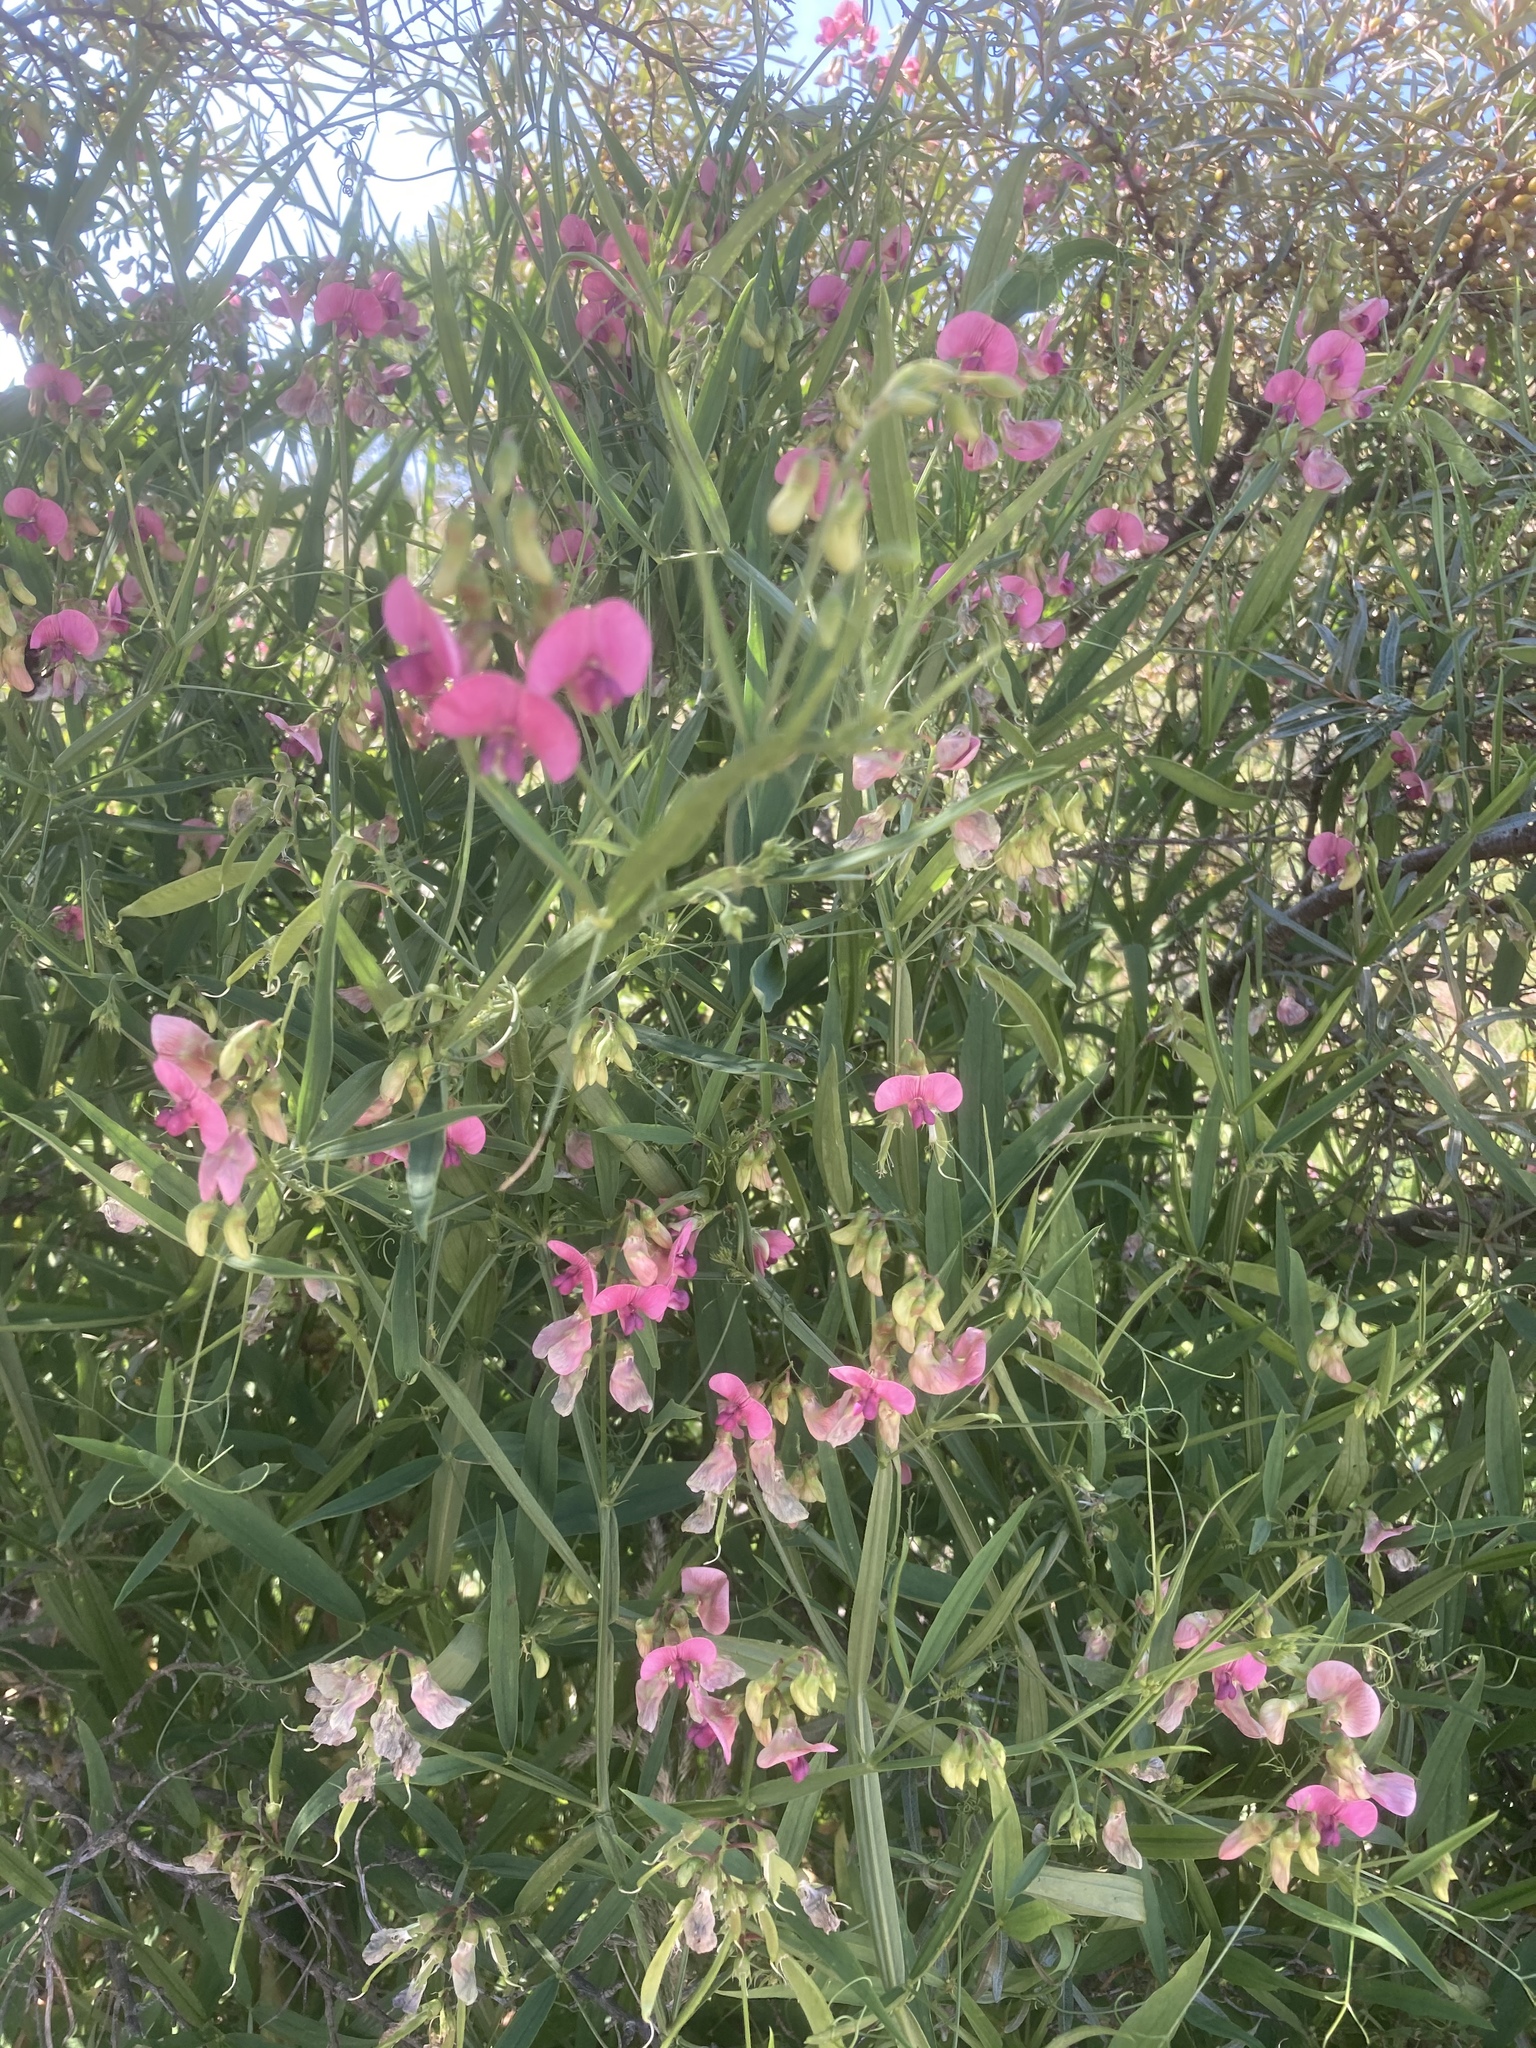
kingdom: Plantae
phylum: Tracheophyta
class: Magnoliopsida
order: Fabales
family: Fabaceae
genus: Lathyrus
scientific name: Lathyrus sylvestris
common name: Flat pea
